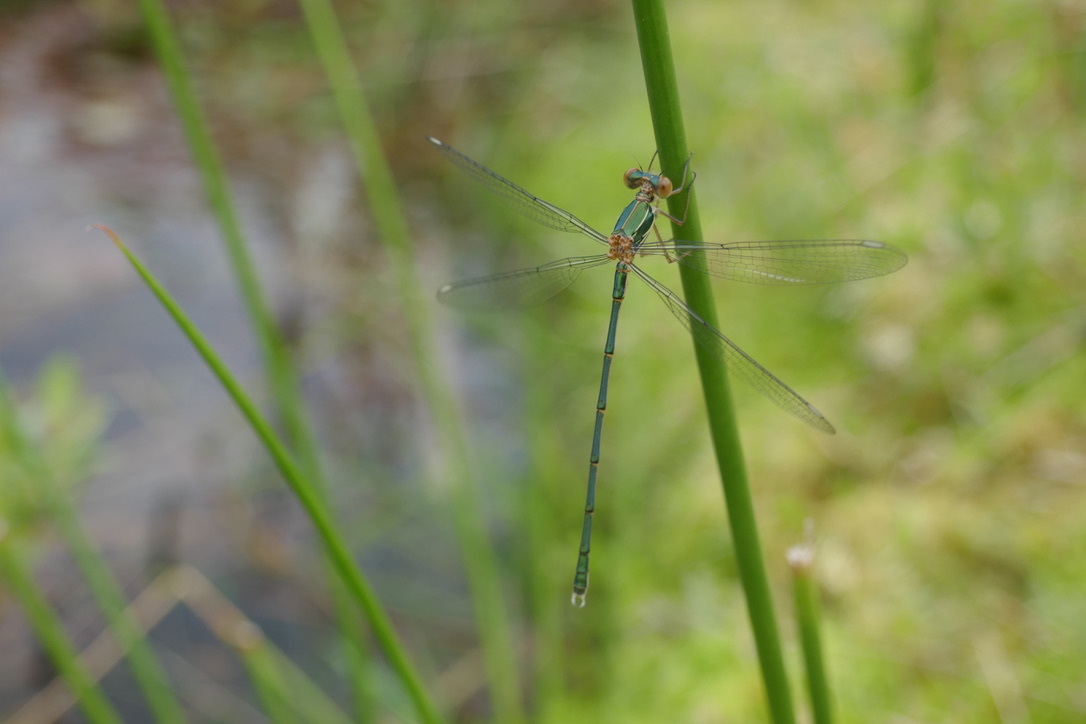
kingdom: Animalia
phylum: Arthropoda
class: Insecta
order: Odonata
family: Lestidae
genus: Chalcolestes
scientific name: Chalcolestes viridis
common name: Green emerald damselfly
